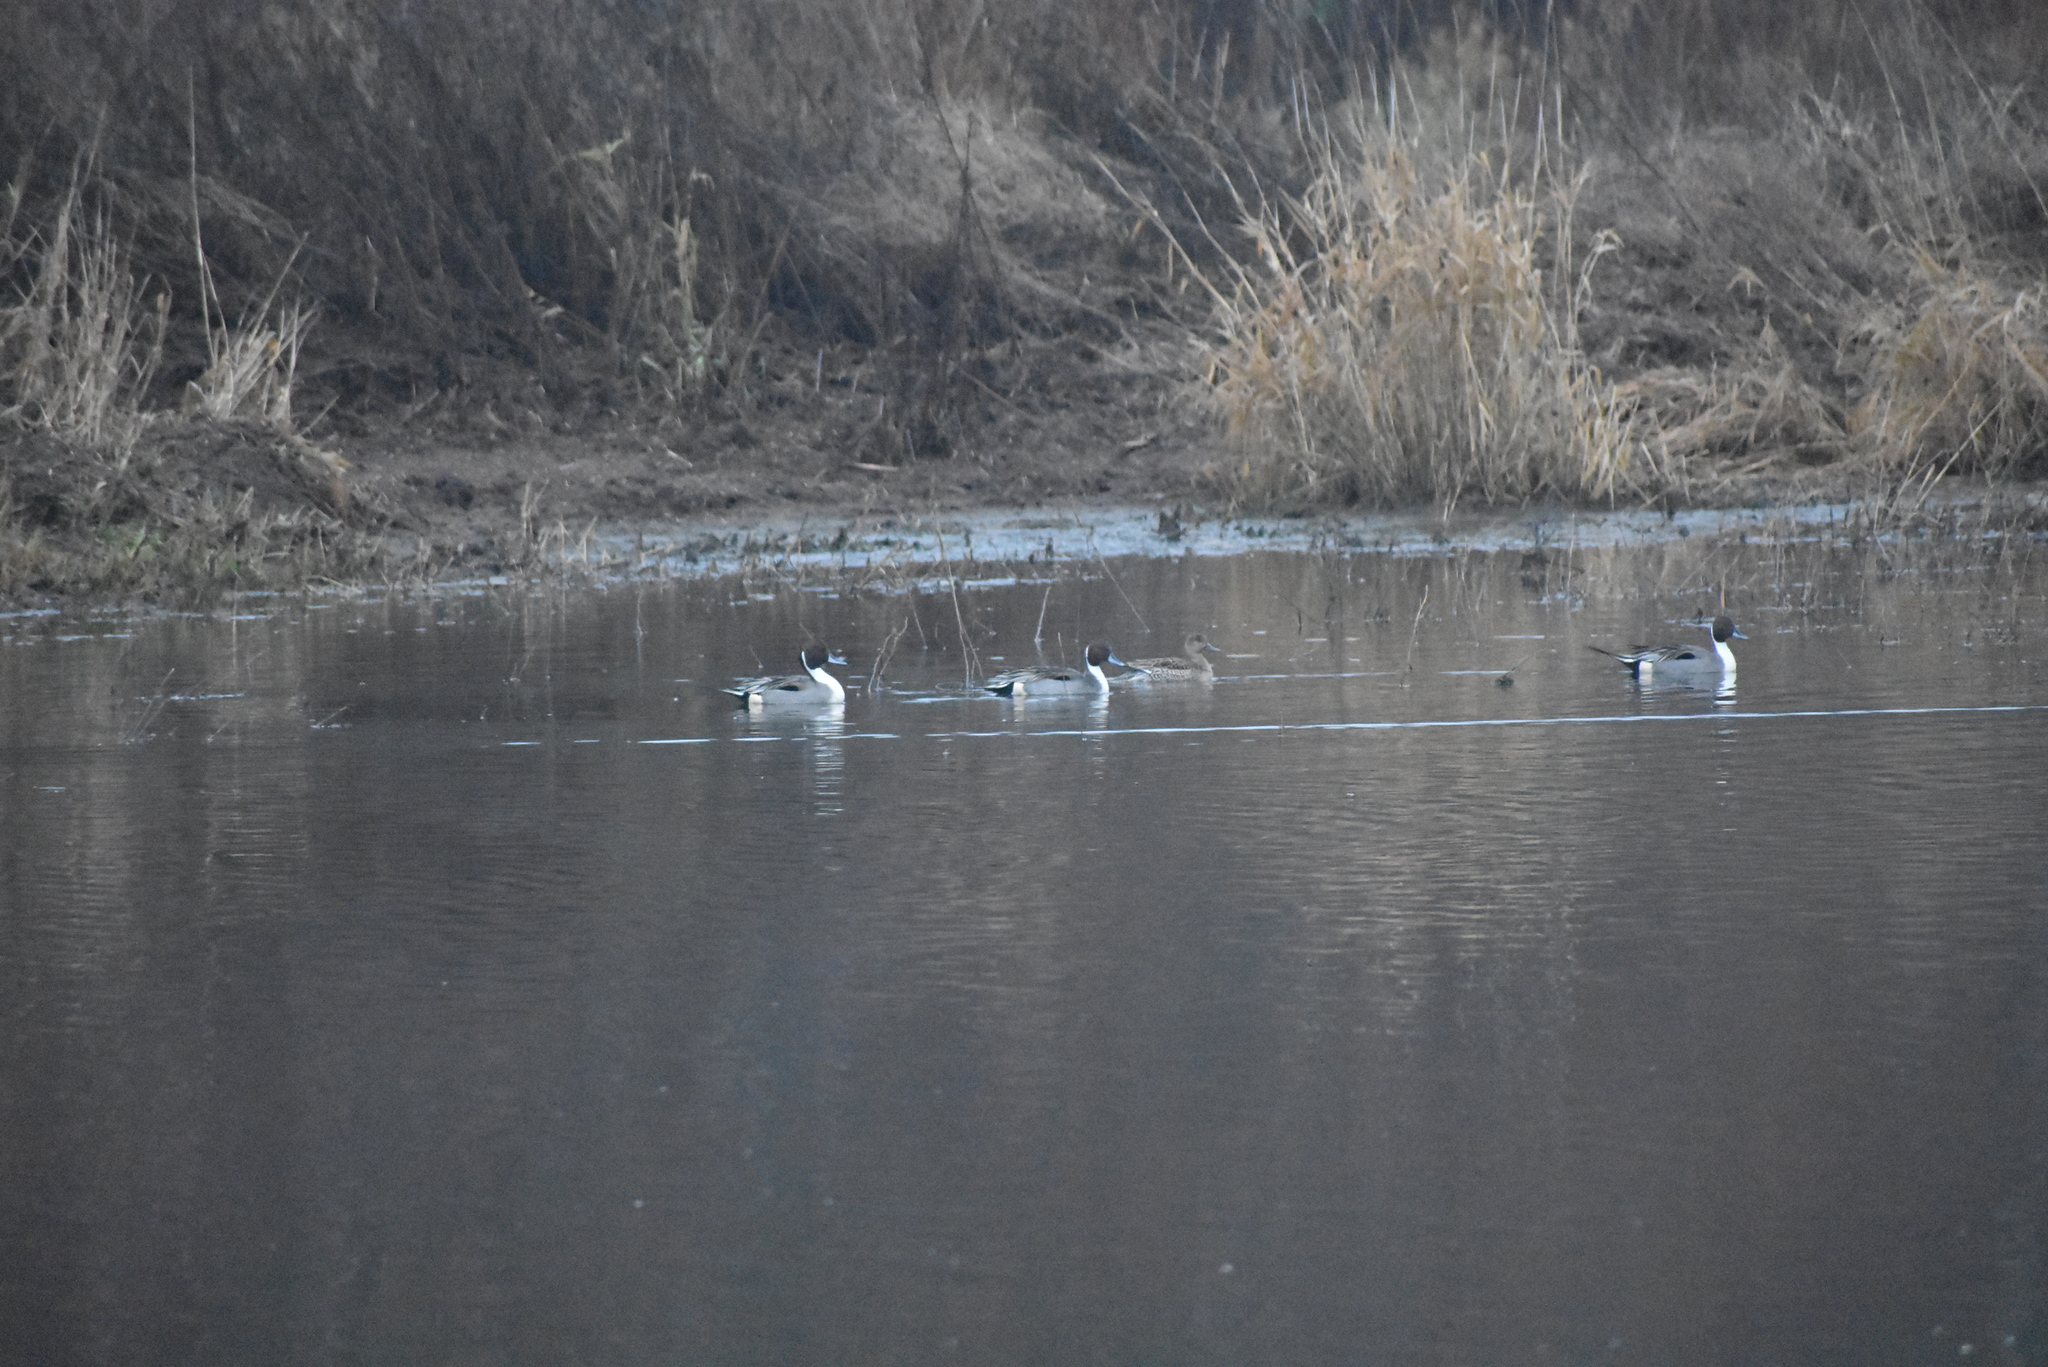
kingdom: Animalia
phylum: Chordata
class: Aves
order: Anseriformes
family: Anatidae
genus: Anas
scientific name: Anas acuta
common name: Northern pintail
